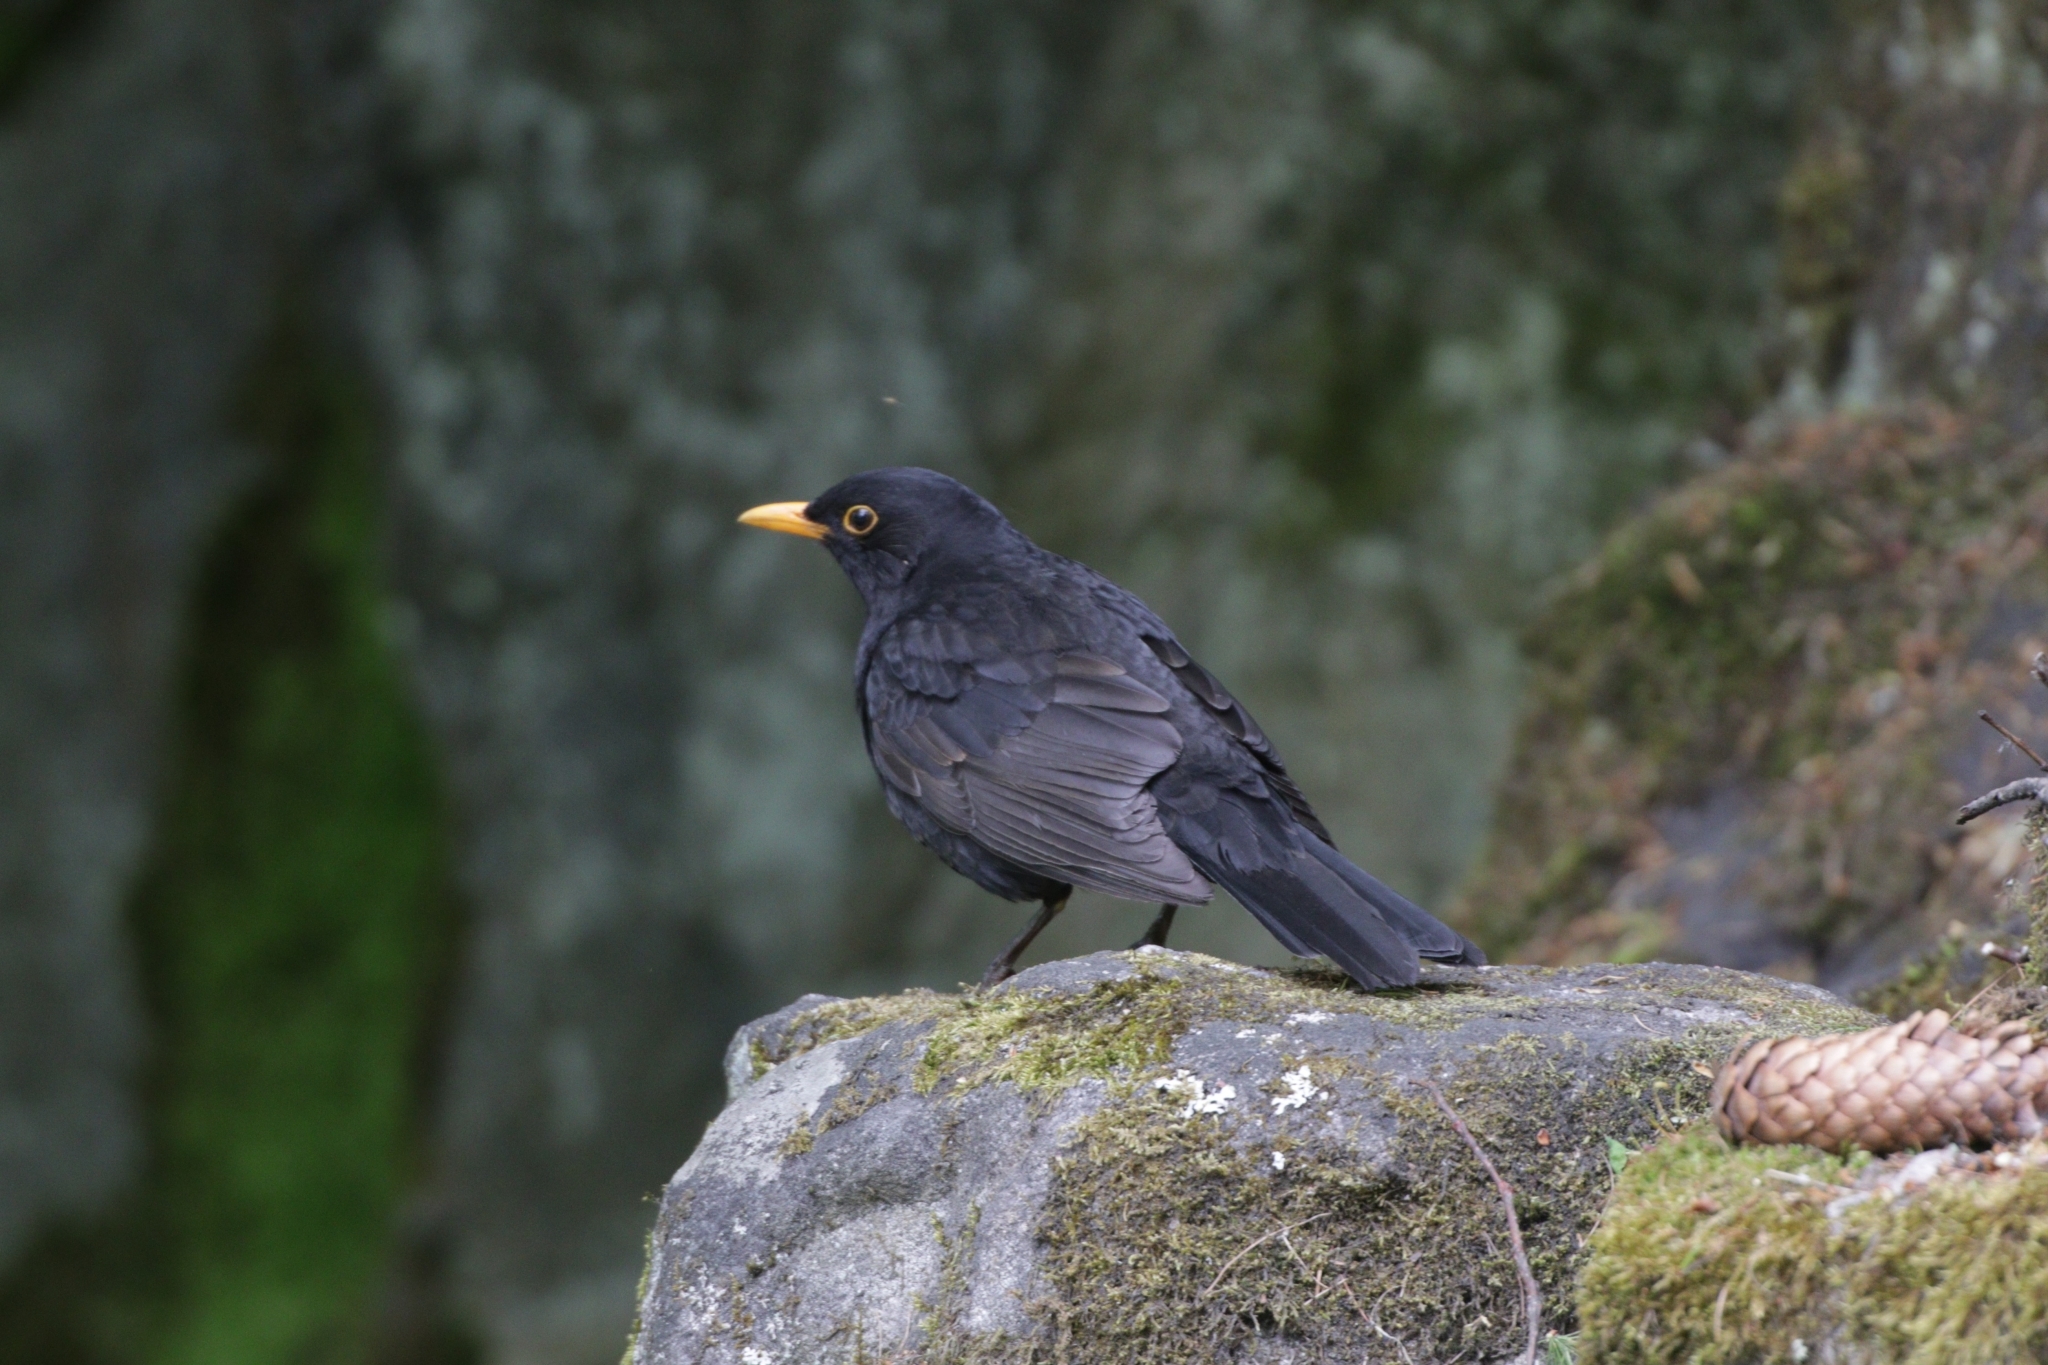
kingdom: Animalia
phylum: Chordata
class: Aves
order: Passeriformes
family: Turdidae
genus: Turdus
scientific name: Turdus merula
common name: Common blackbird
